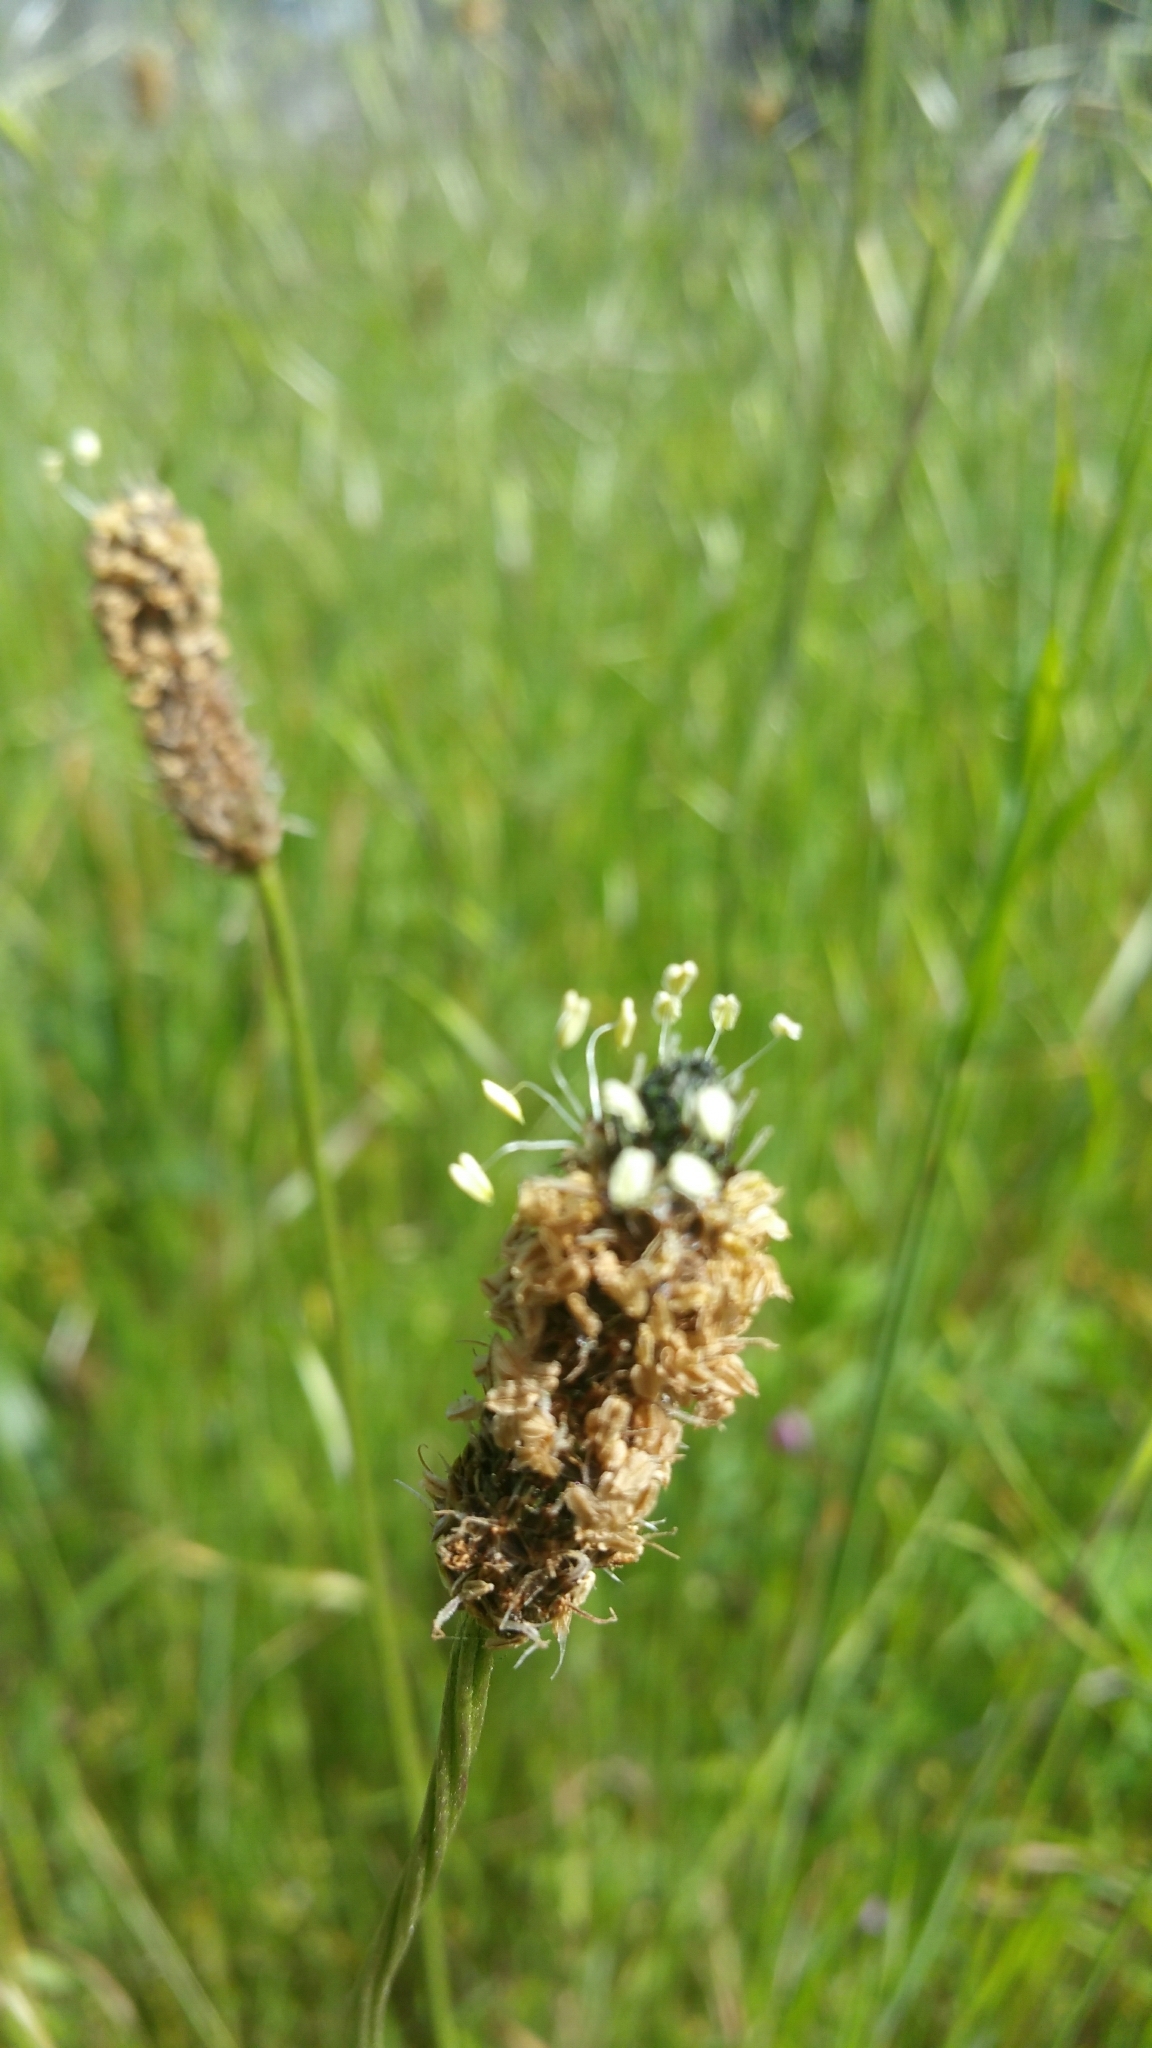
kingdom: Plantae
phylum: Tracheophyta
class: Magnoliopsida
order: Lamiales
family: Plantaginaceae
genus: Plantago
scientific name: Plantago lanceolata
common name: Ribwort plantain
